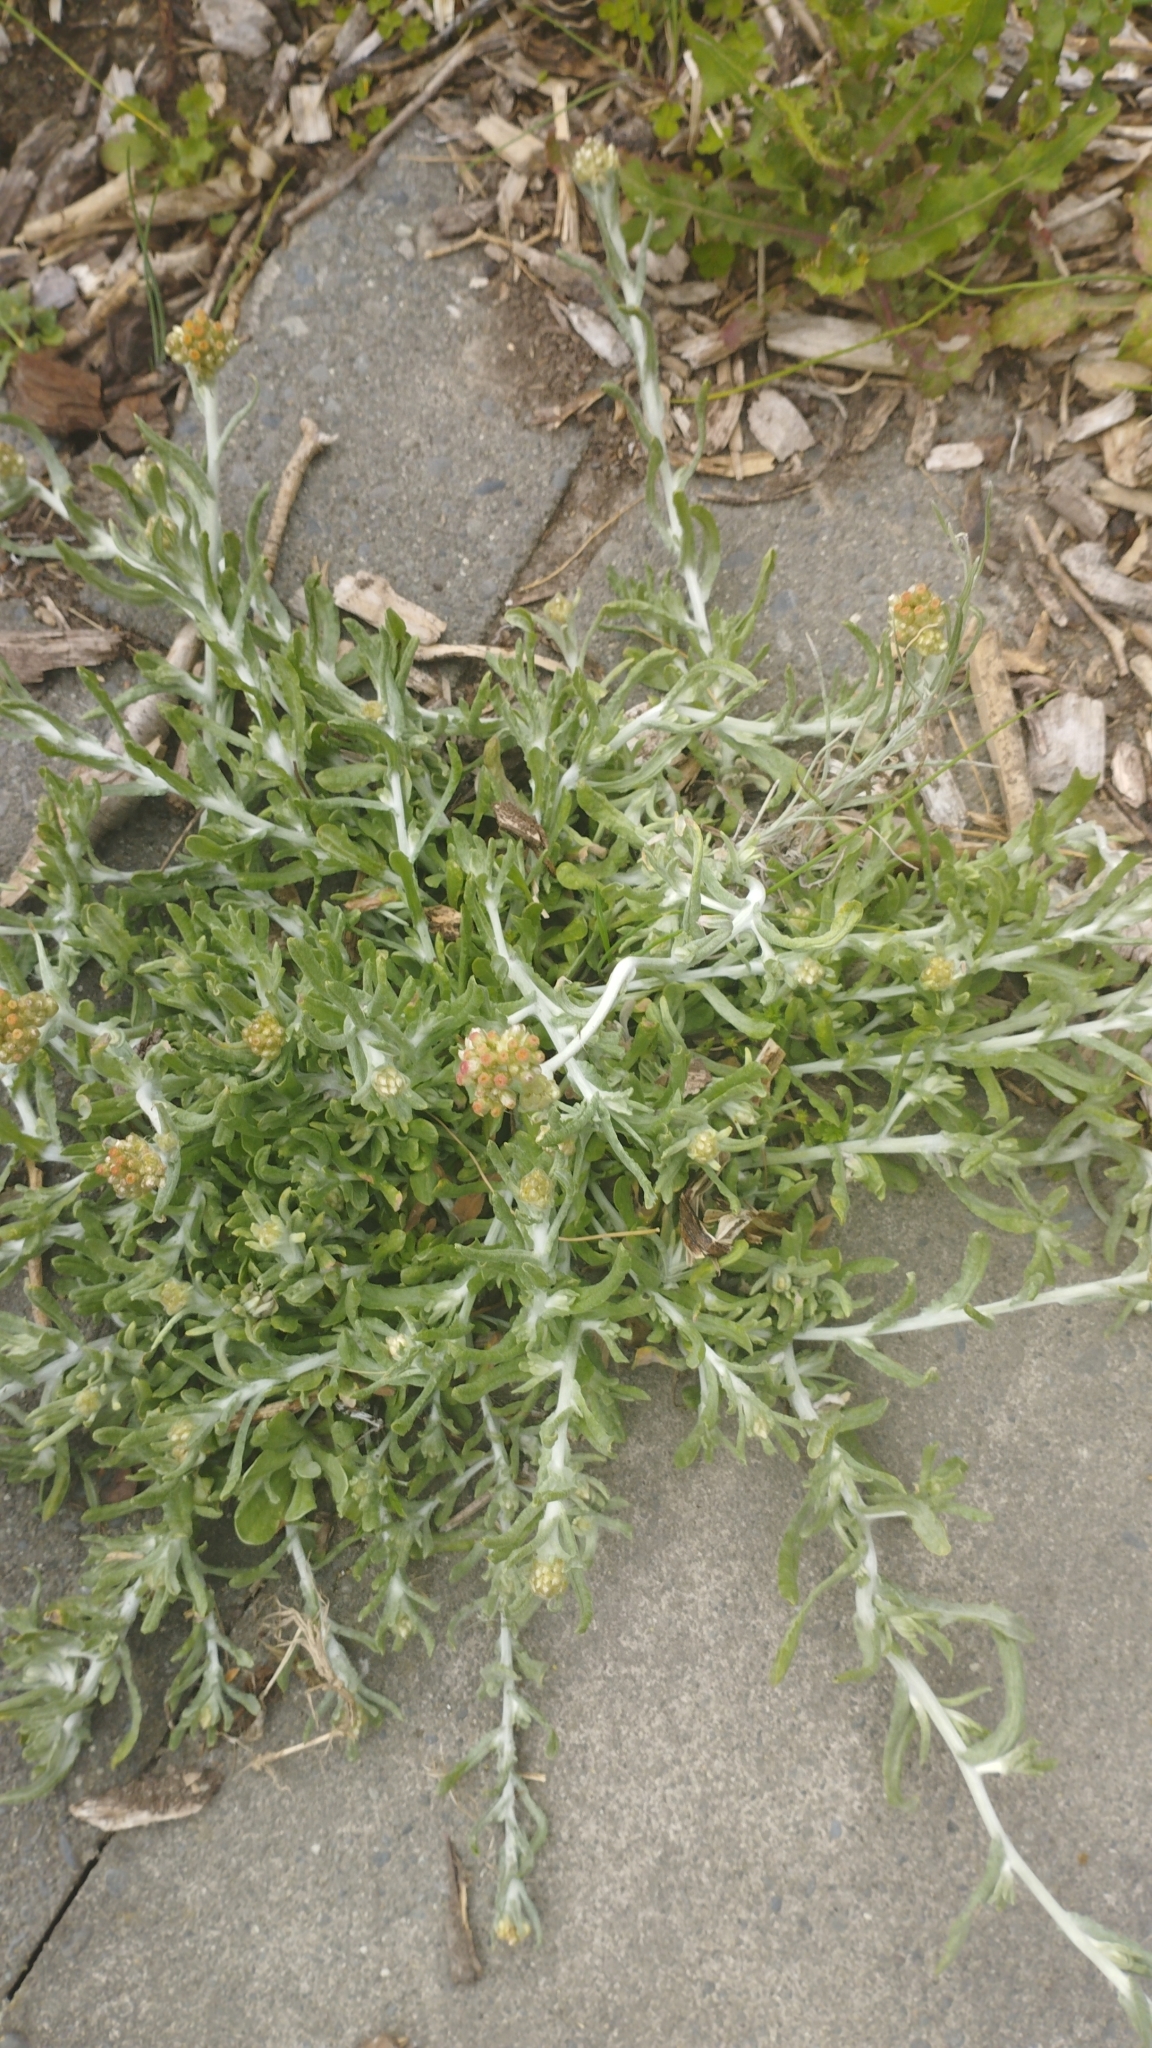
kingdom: Plantae
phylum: Tracheophyta
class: Magnoliopsida
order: Asterales
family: Asteraceae
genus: Helichrysum
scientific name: Helichrysum luteoalbum
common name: Daisy
